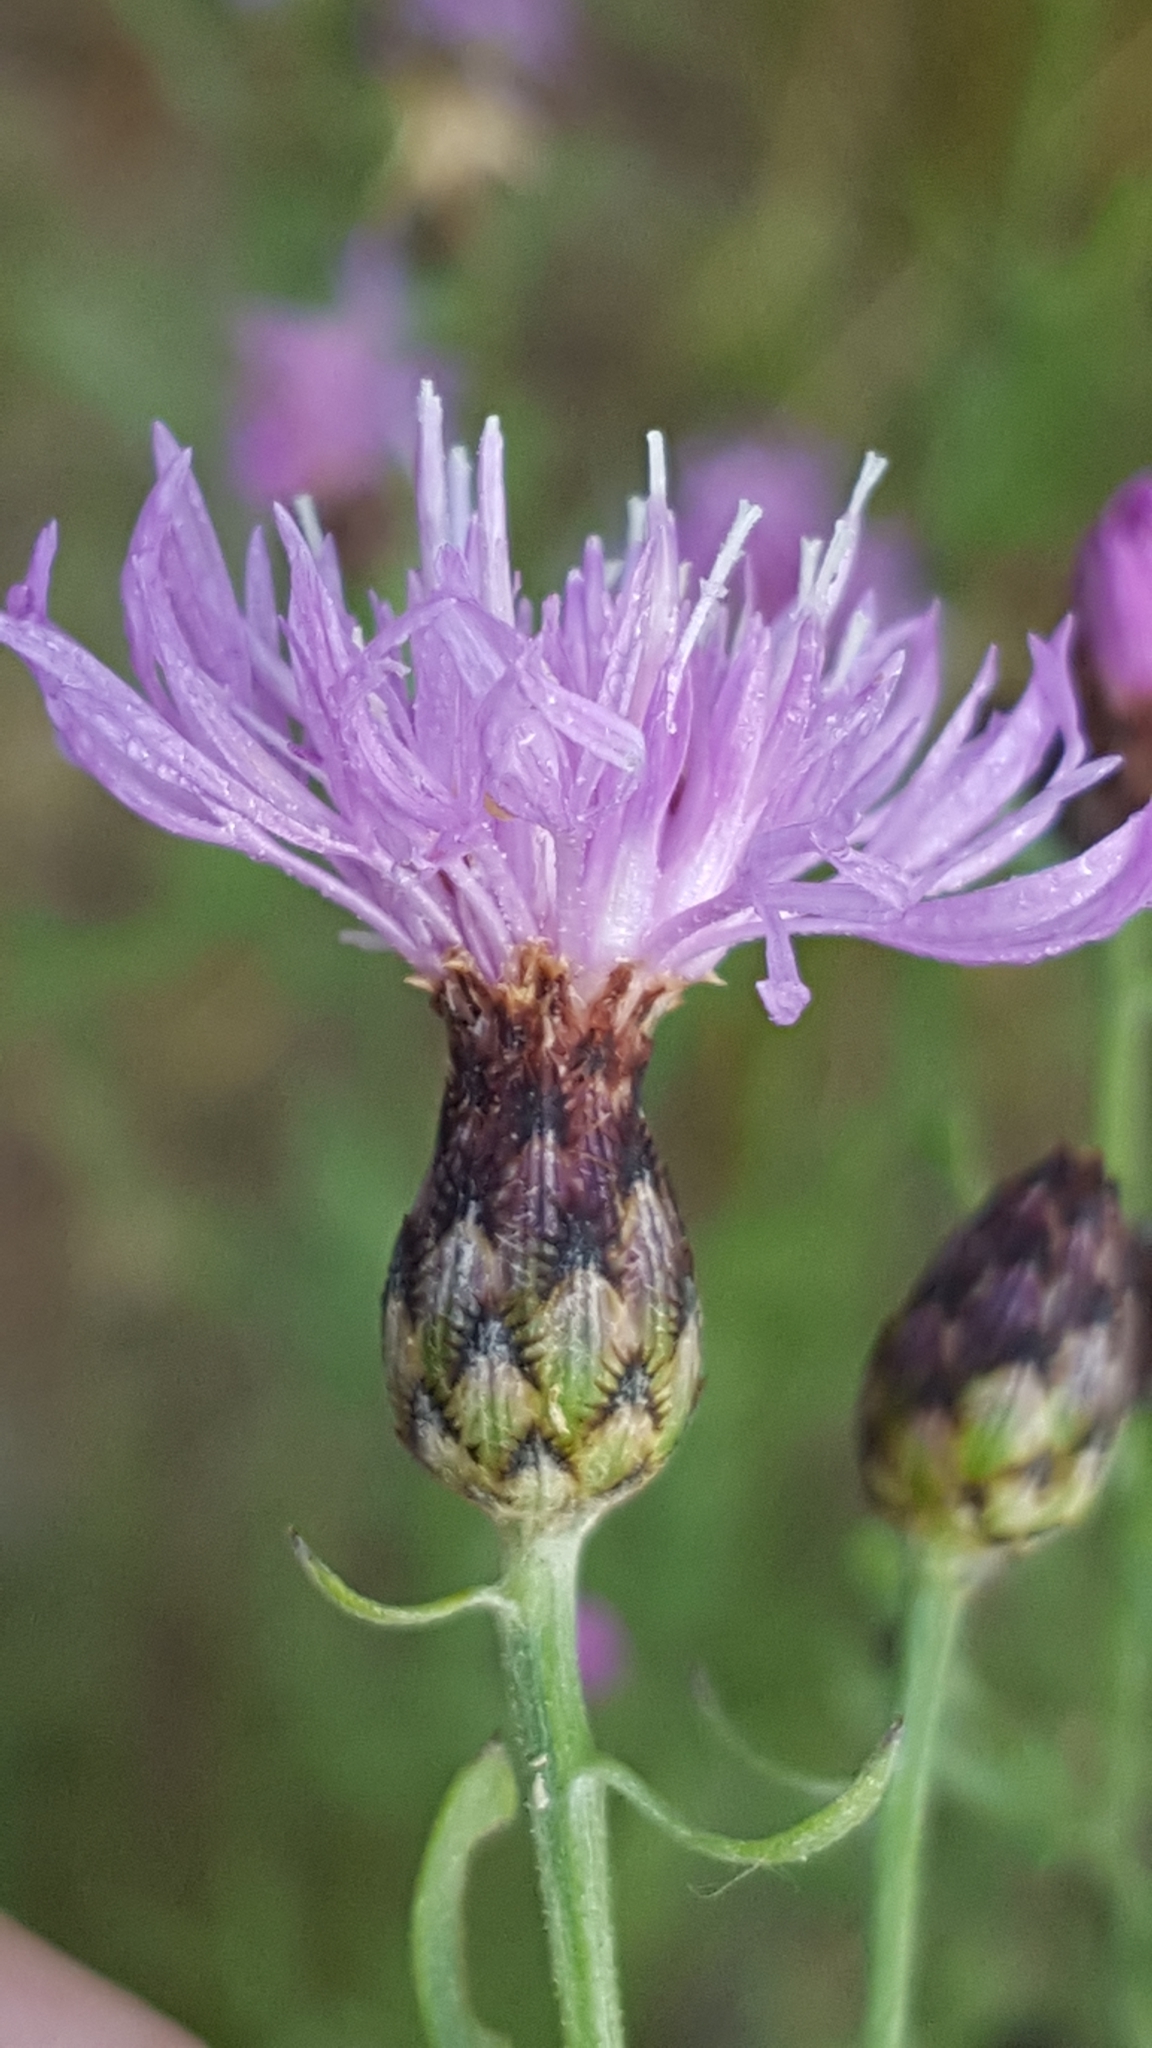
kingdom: Plantae
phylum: Tracheophyta
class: Magnoliopsida
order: Asterales
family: Asteraceae
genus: Centaurea
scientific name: Centaurea stoebe
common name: Spotted knapweed
